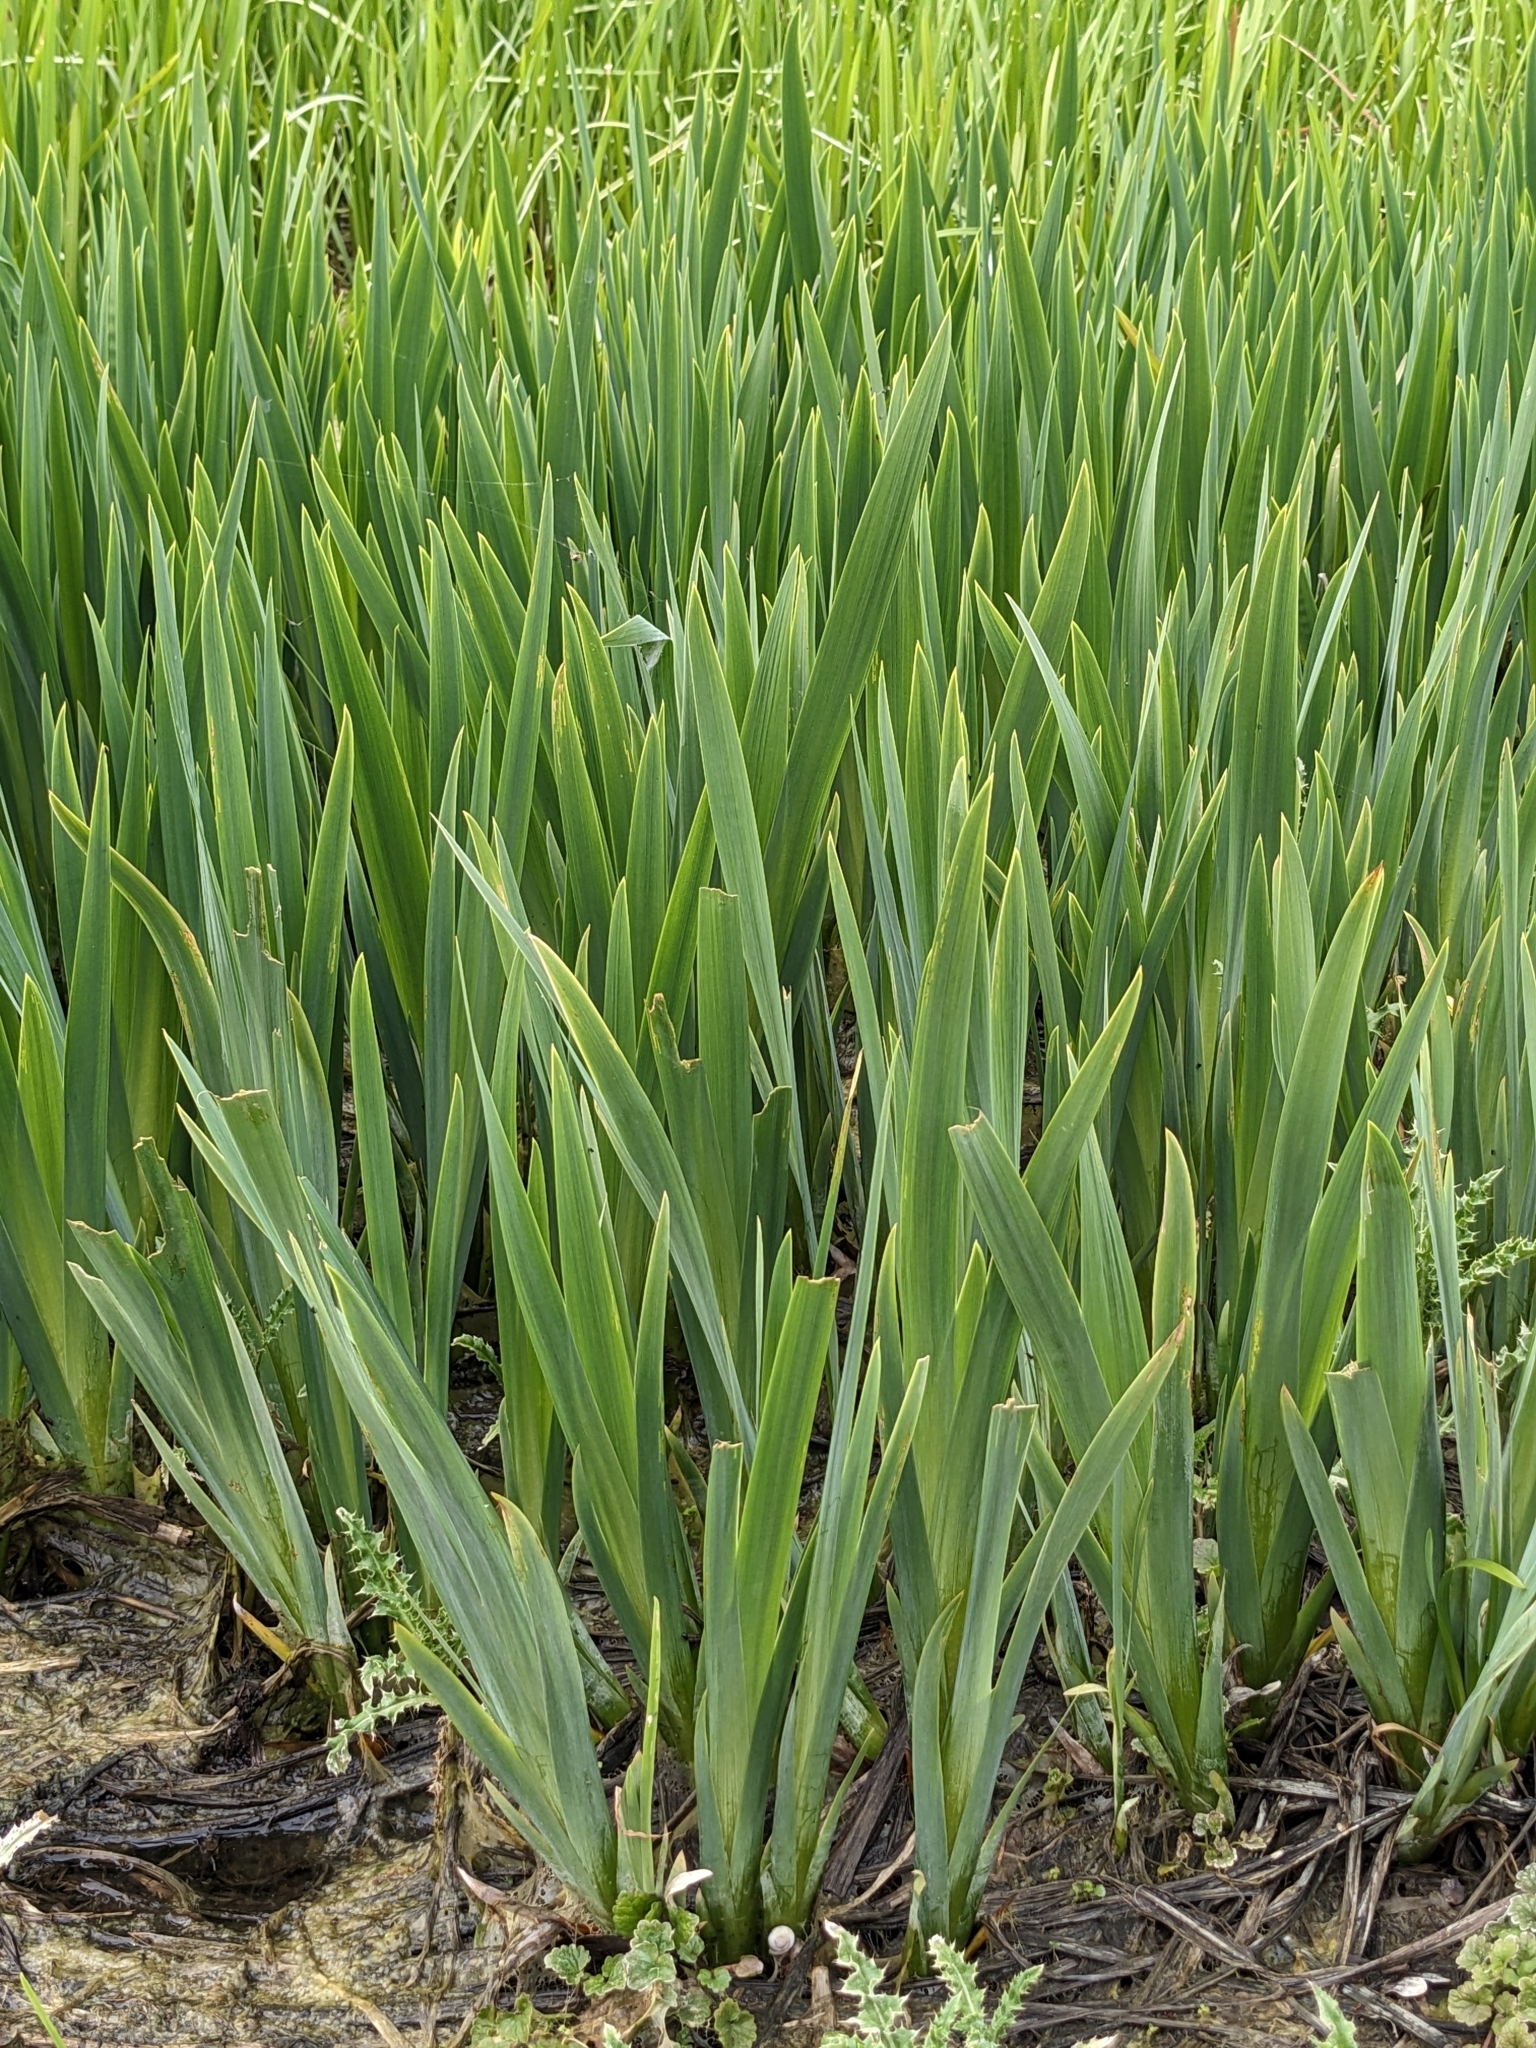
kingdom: Plantae
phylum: Tracheophyta
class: Liliopsida
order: Asparagales
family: Iridaceae
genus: Iris
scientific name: Iris pseudacorus
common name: Yellow flag
